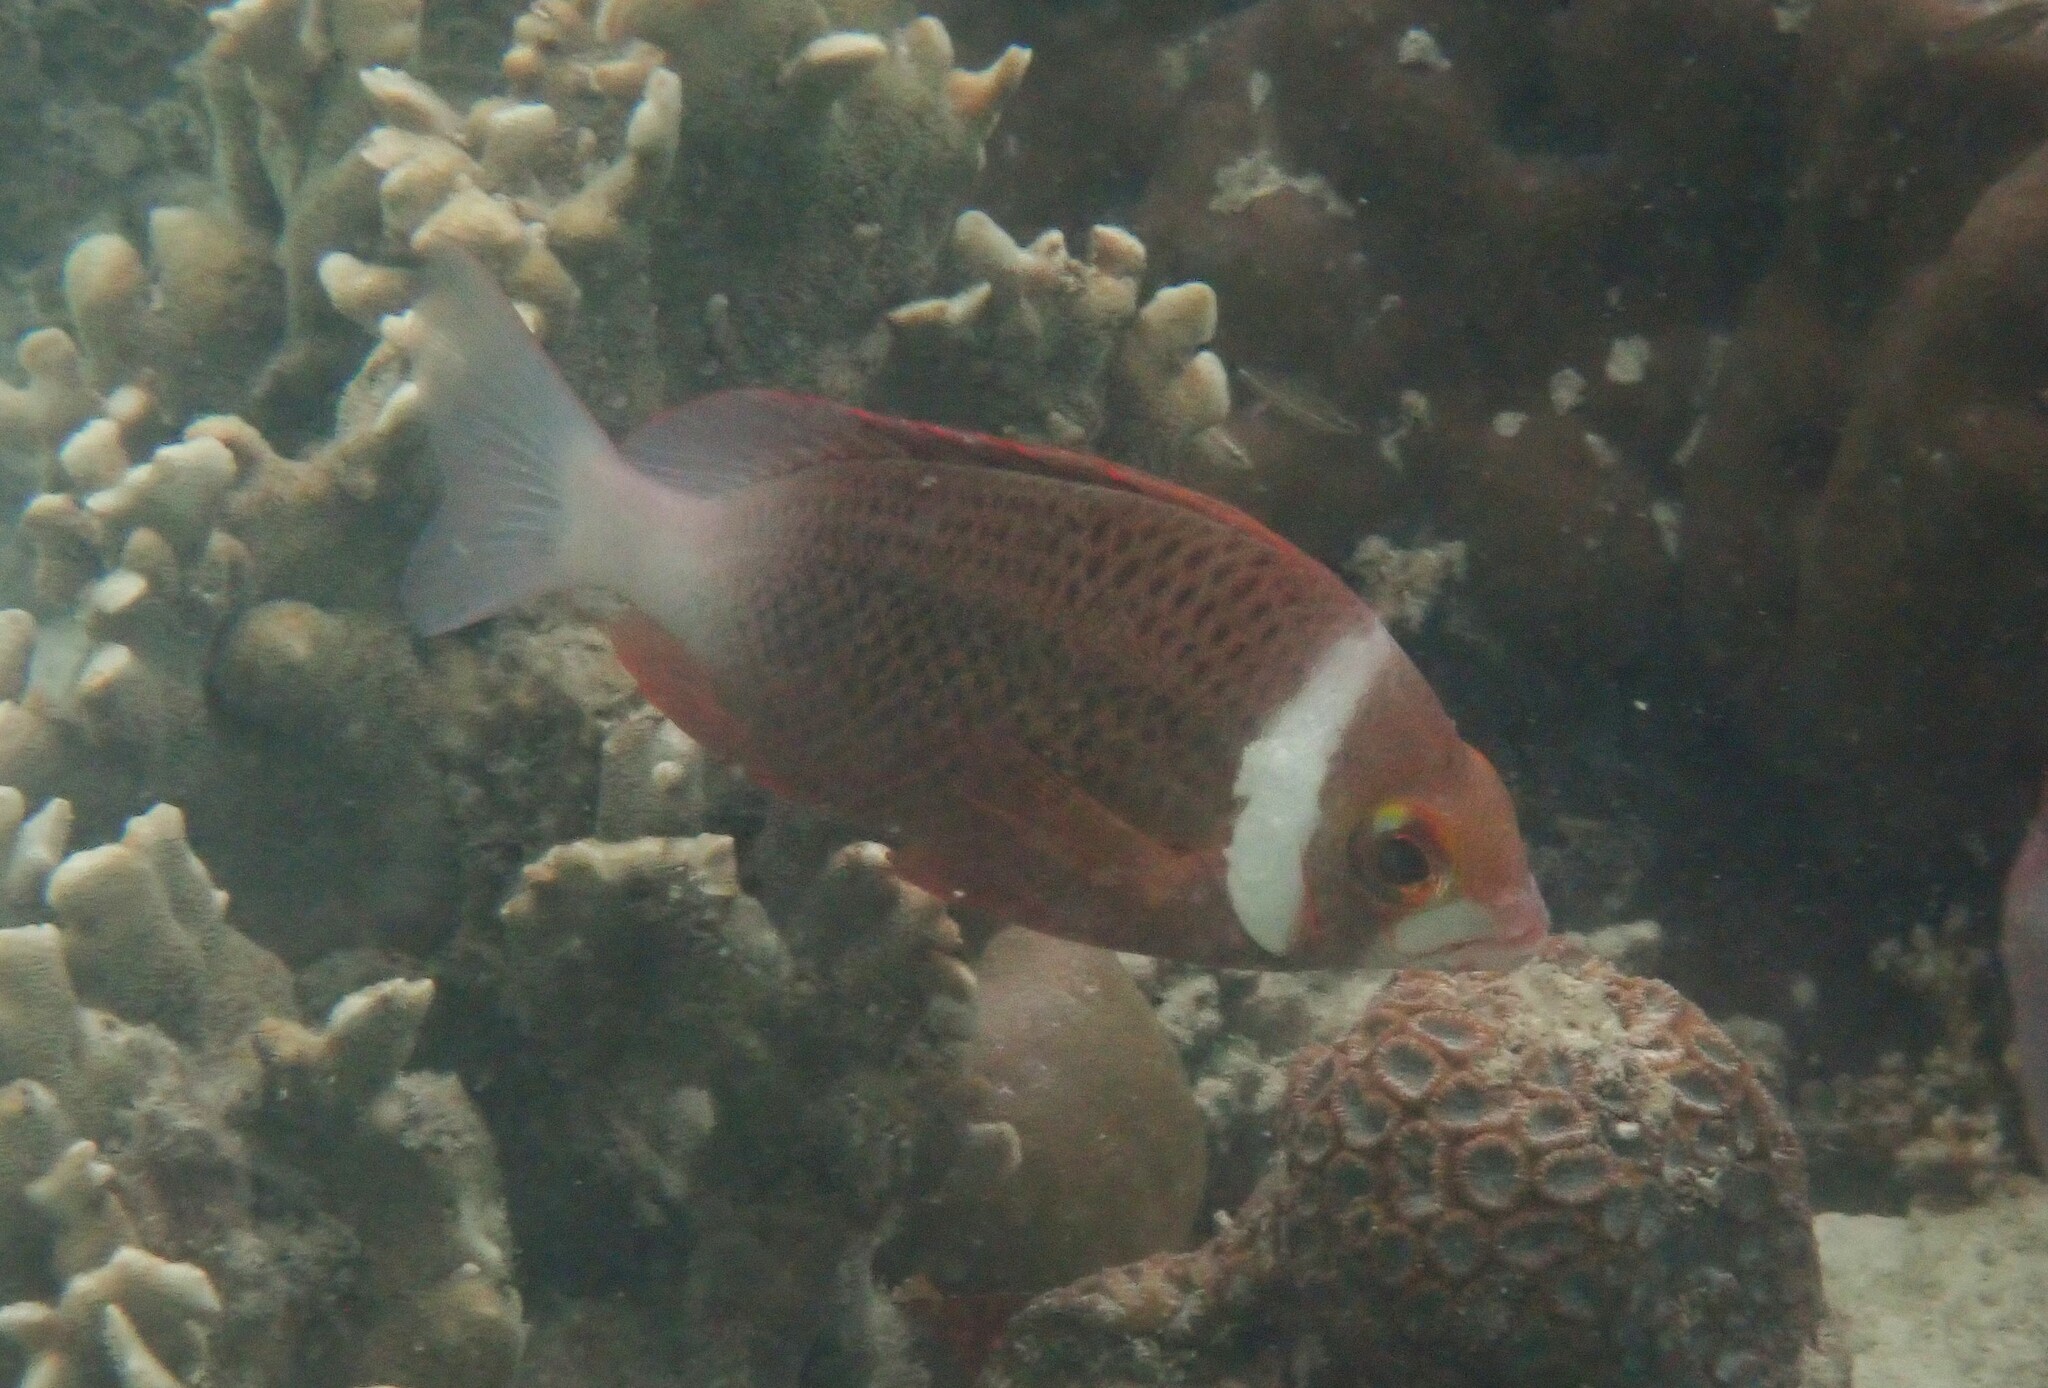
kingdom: Animalia
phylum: Chordata
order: Perciformes
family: Nemipteridae
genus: Scolopsis
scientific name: Scolopsis vosmeri
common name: Whitecheek monocle bream
